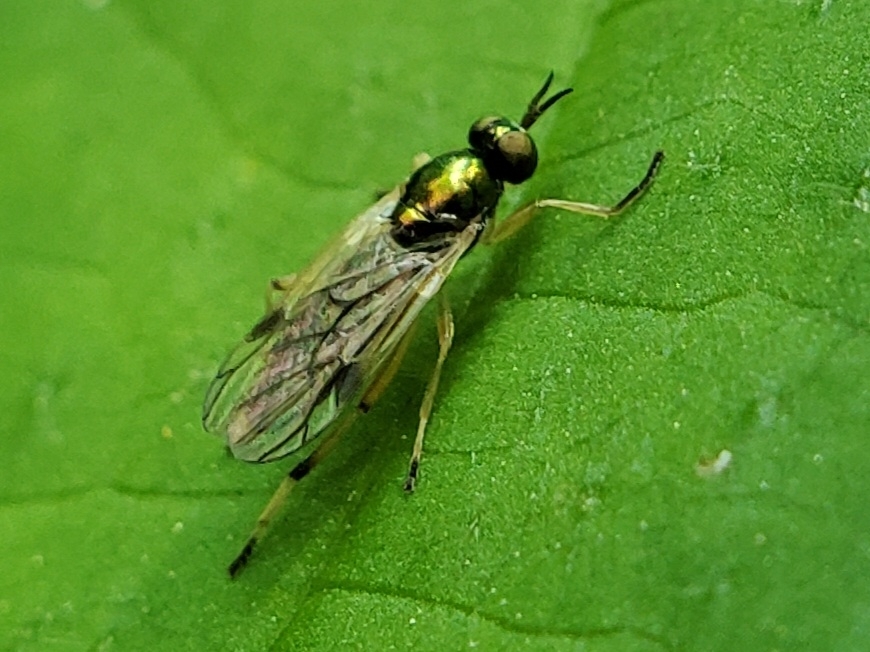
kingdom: Animalia
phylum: Arthropoda
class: Insecta
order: Diptera
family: Stratiomyidae
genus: Actina
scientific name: Actina viridis
